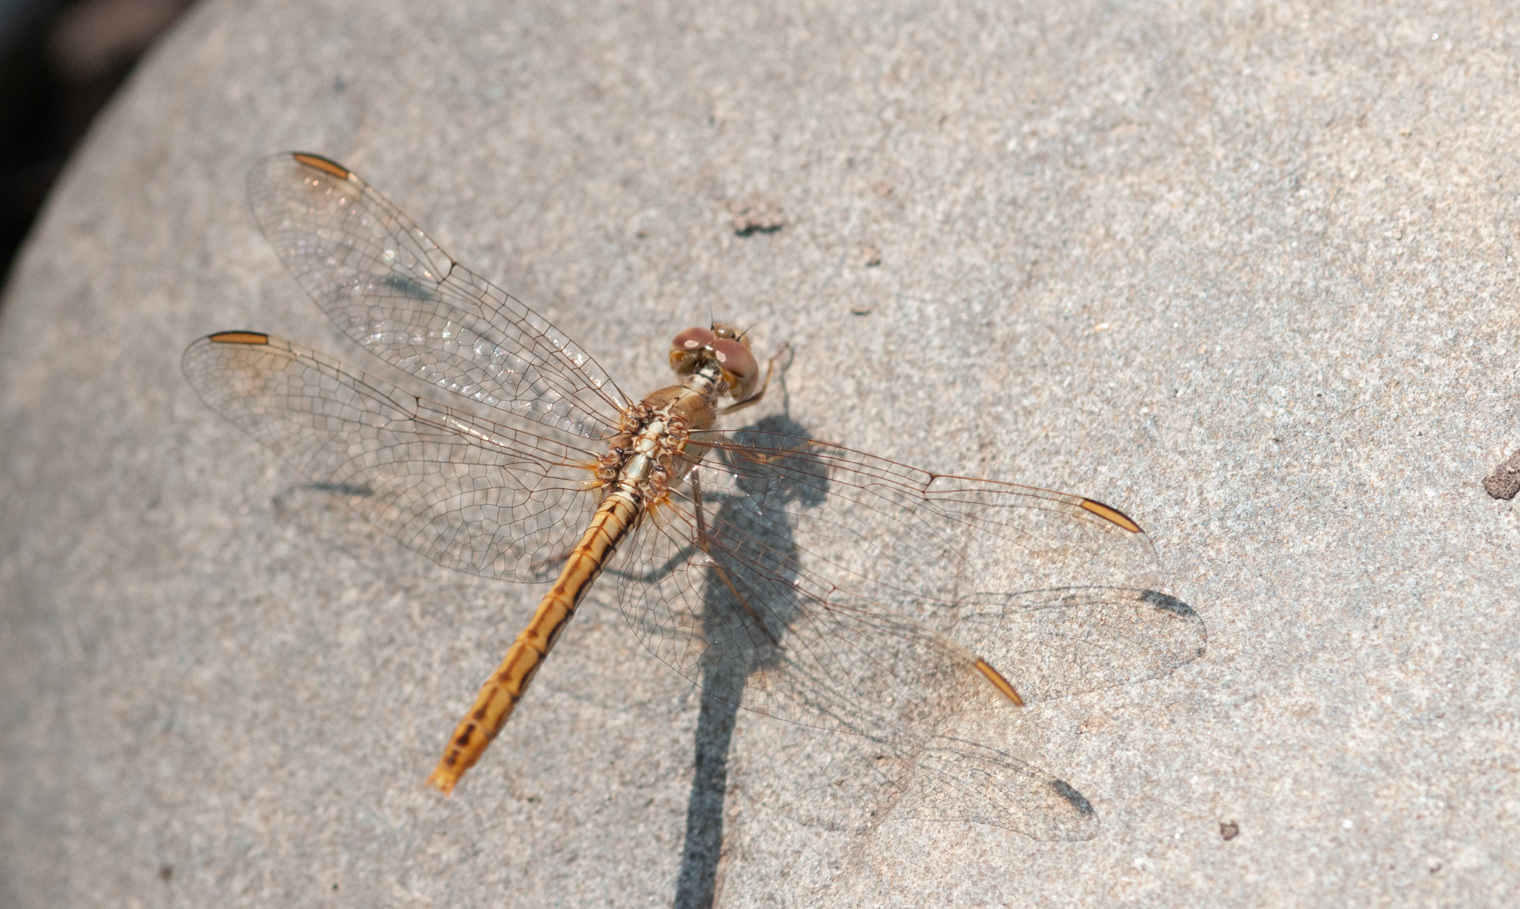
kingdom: Animalia
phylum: Arthropoda
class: Insecta
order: Odonata
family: Libellulidae
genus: Diplacodes
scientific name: Diplacodes haematodes
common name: Scarlet percher
